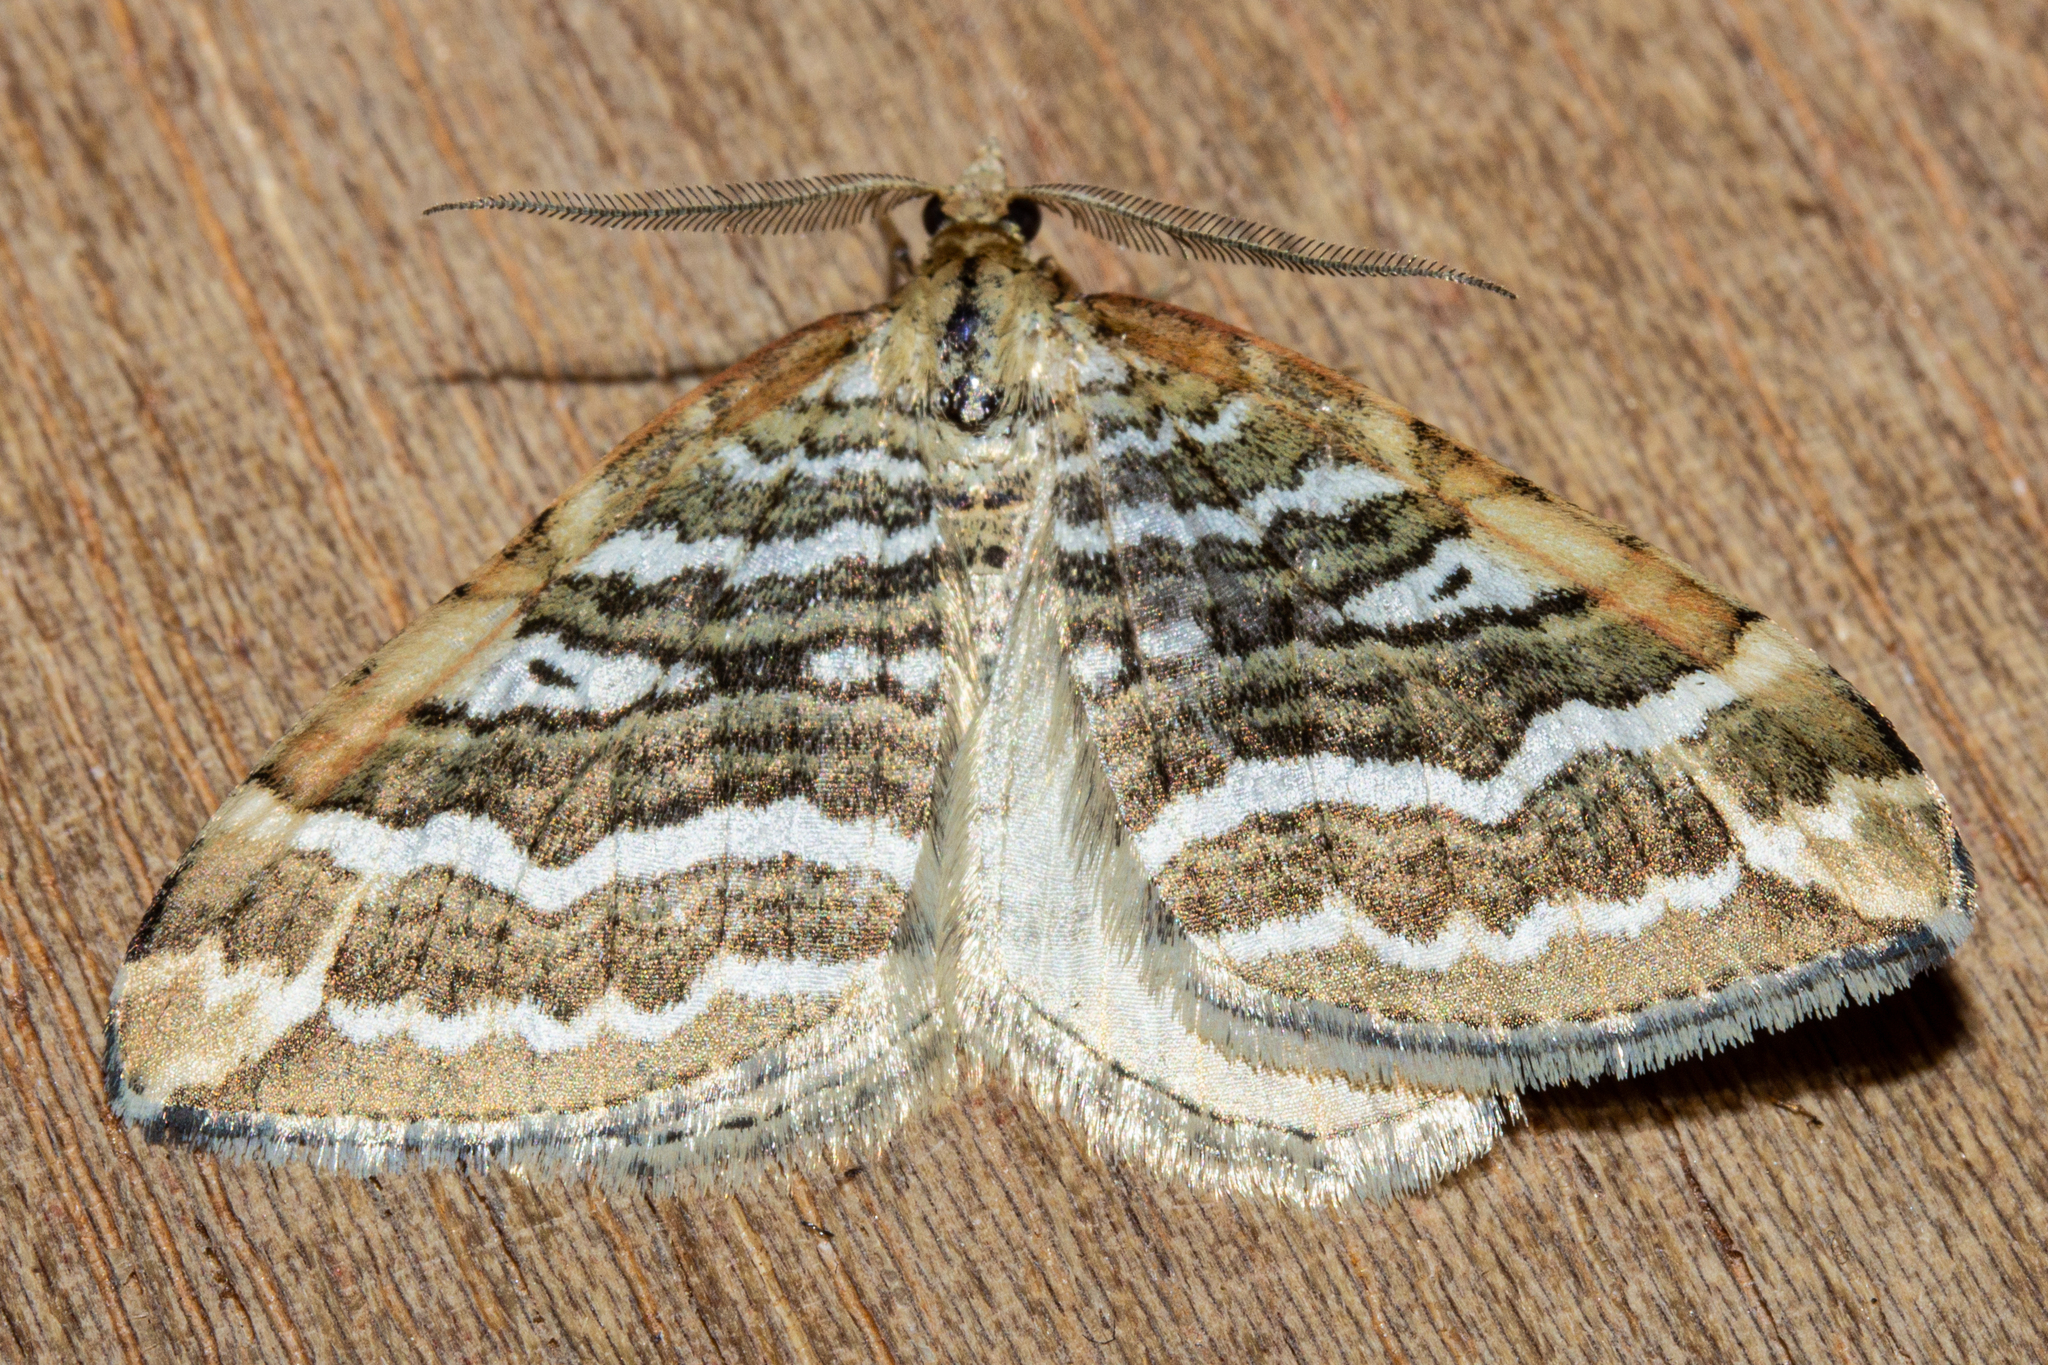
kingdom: Animalia
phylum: Arthropoda
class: Insecta
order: Lepidoptera
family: Geometridae
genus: Asaphodes
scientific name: Asaphodes cataphracta
